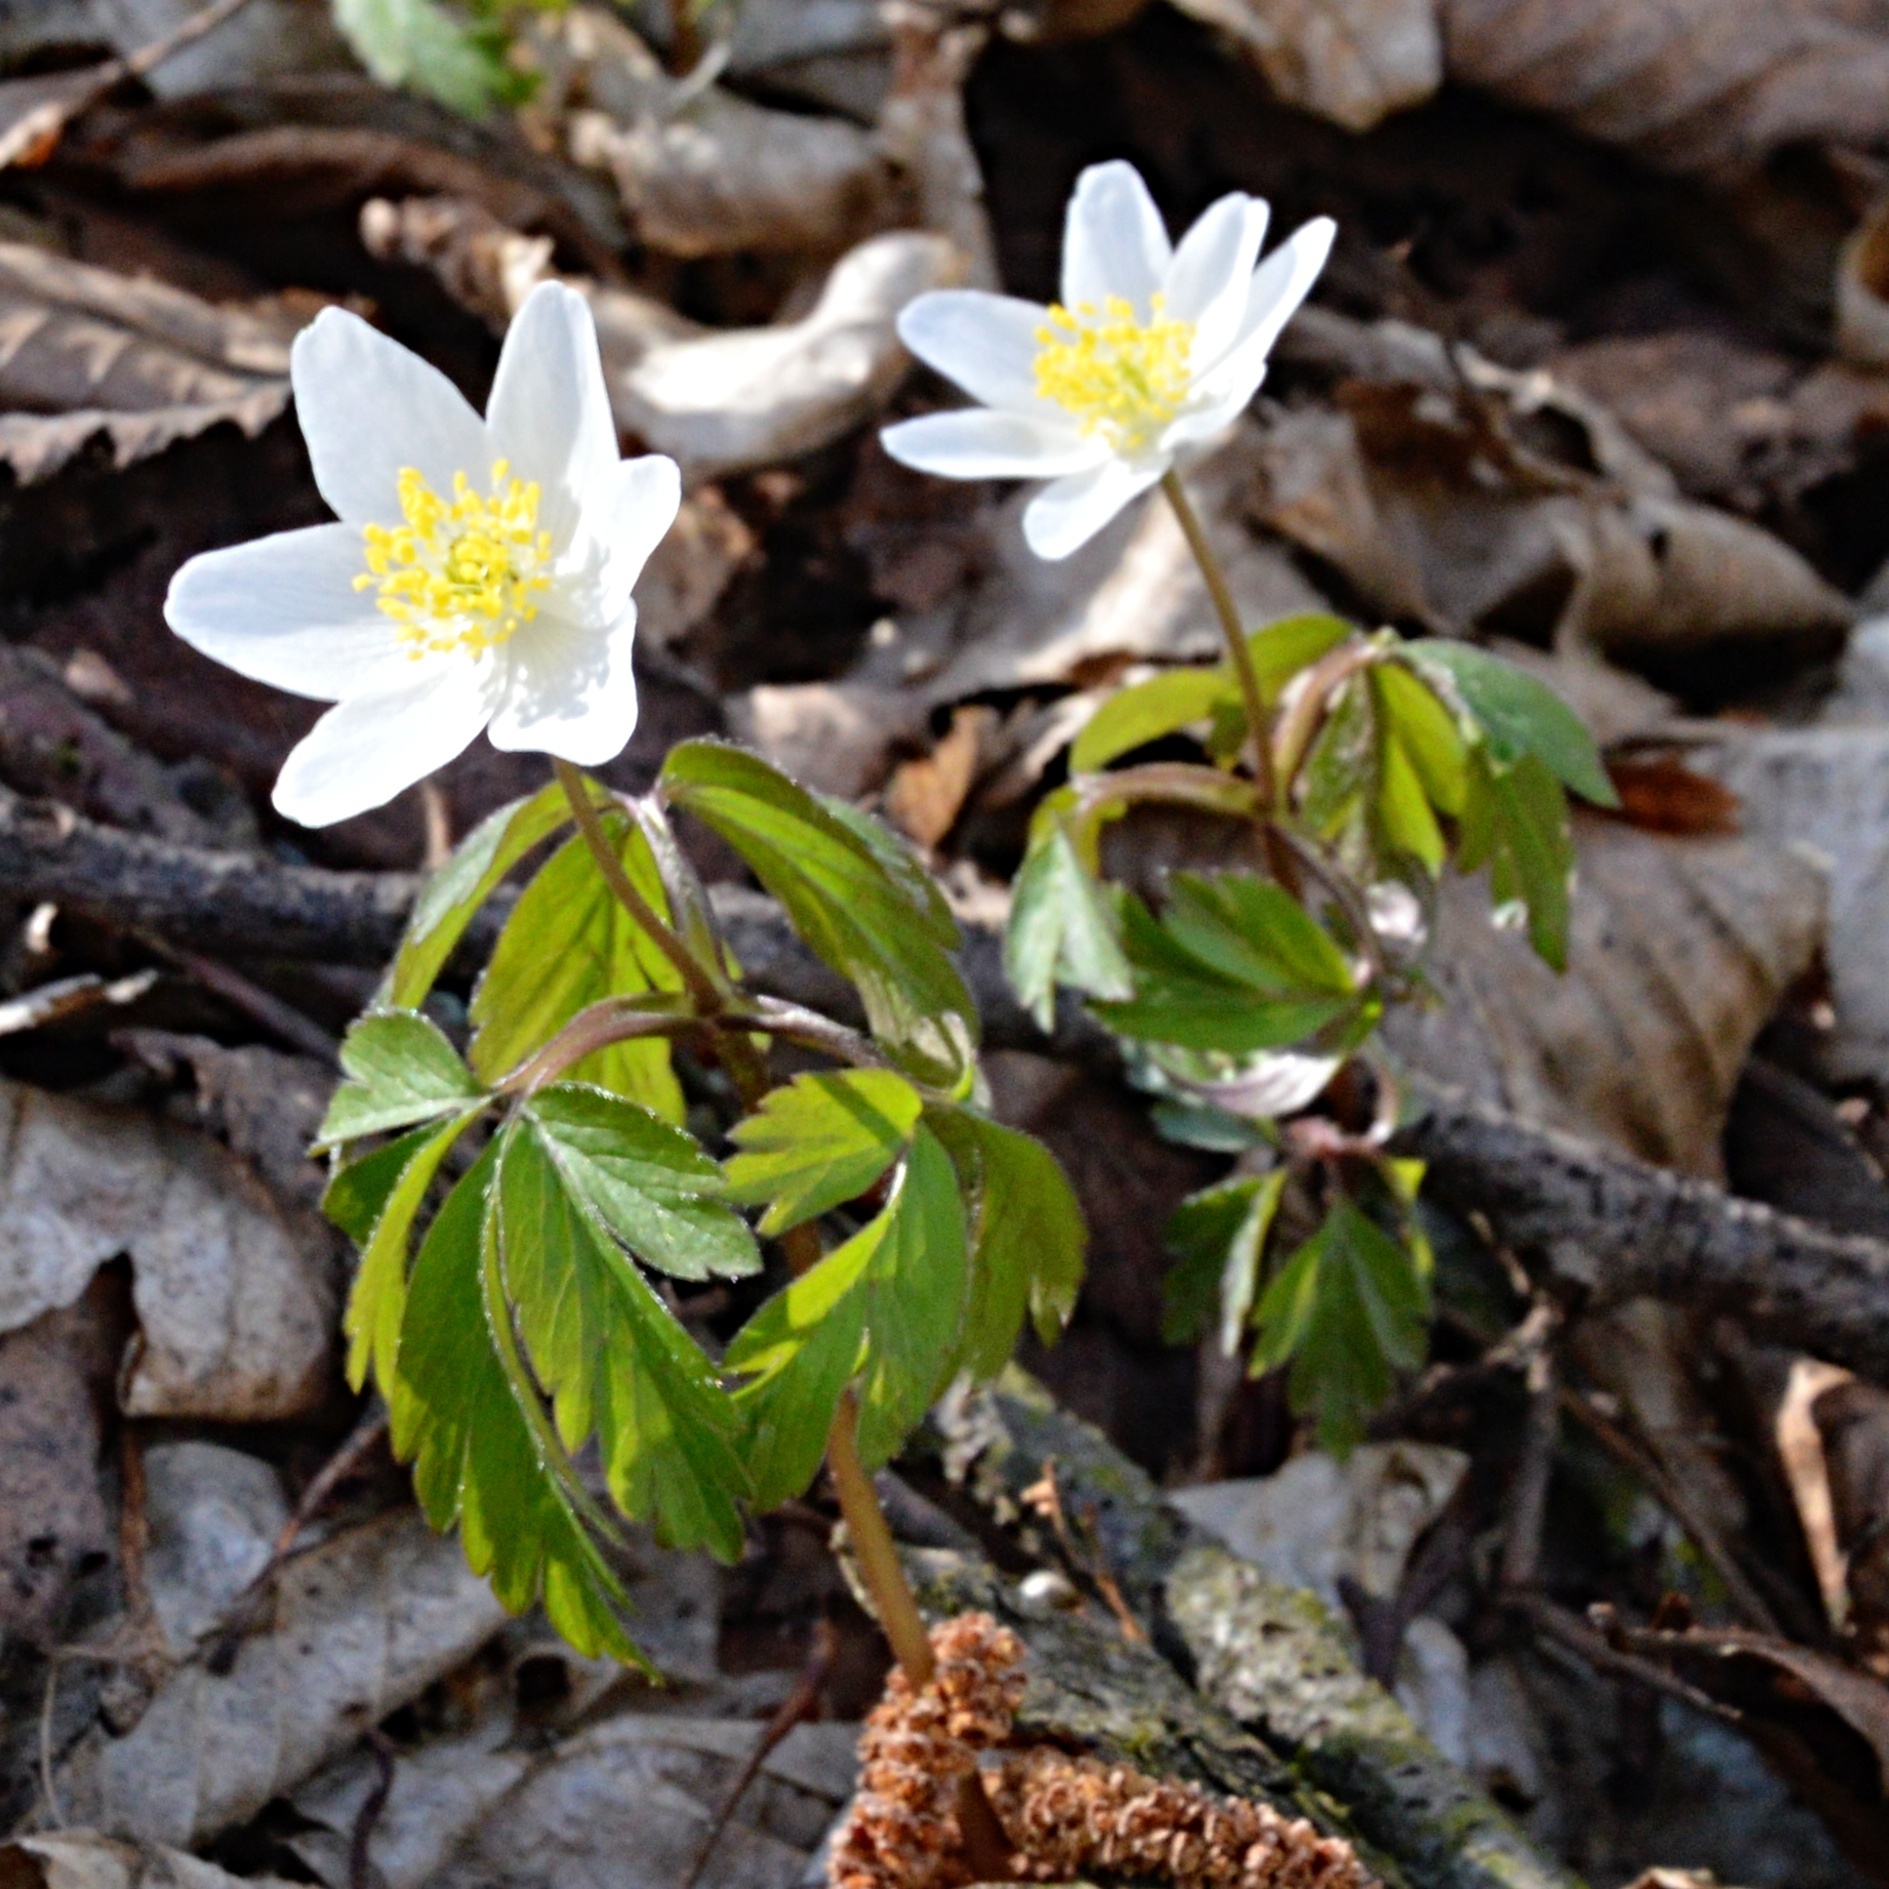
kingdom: Plantae
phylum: Tracheophyta
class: Magnoliopsida
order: Ranunculales
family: Ranunculaceae
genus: Anemone
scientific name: Anemone nemorosa
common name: Wood anemone
